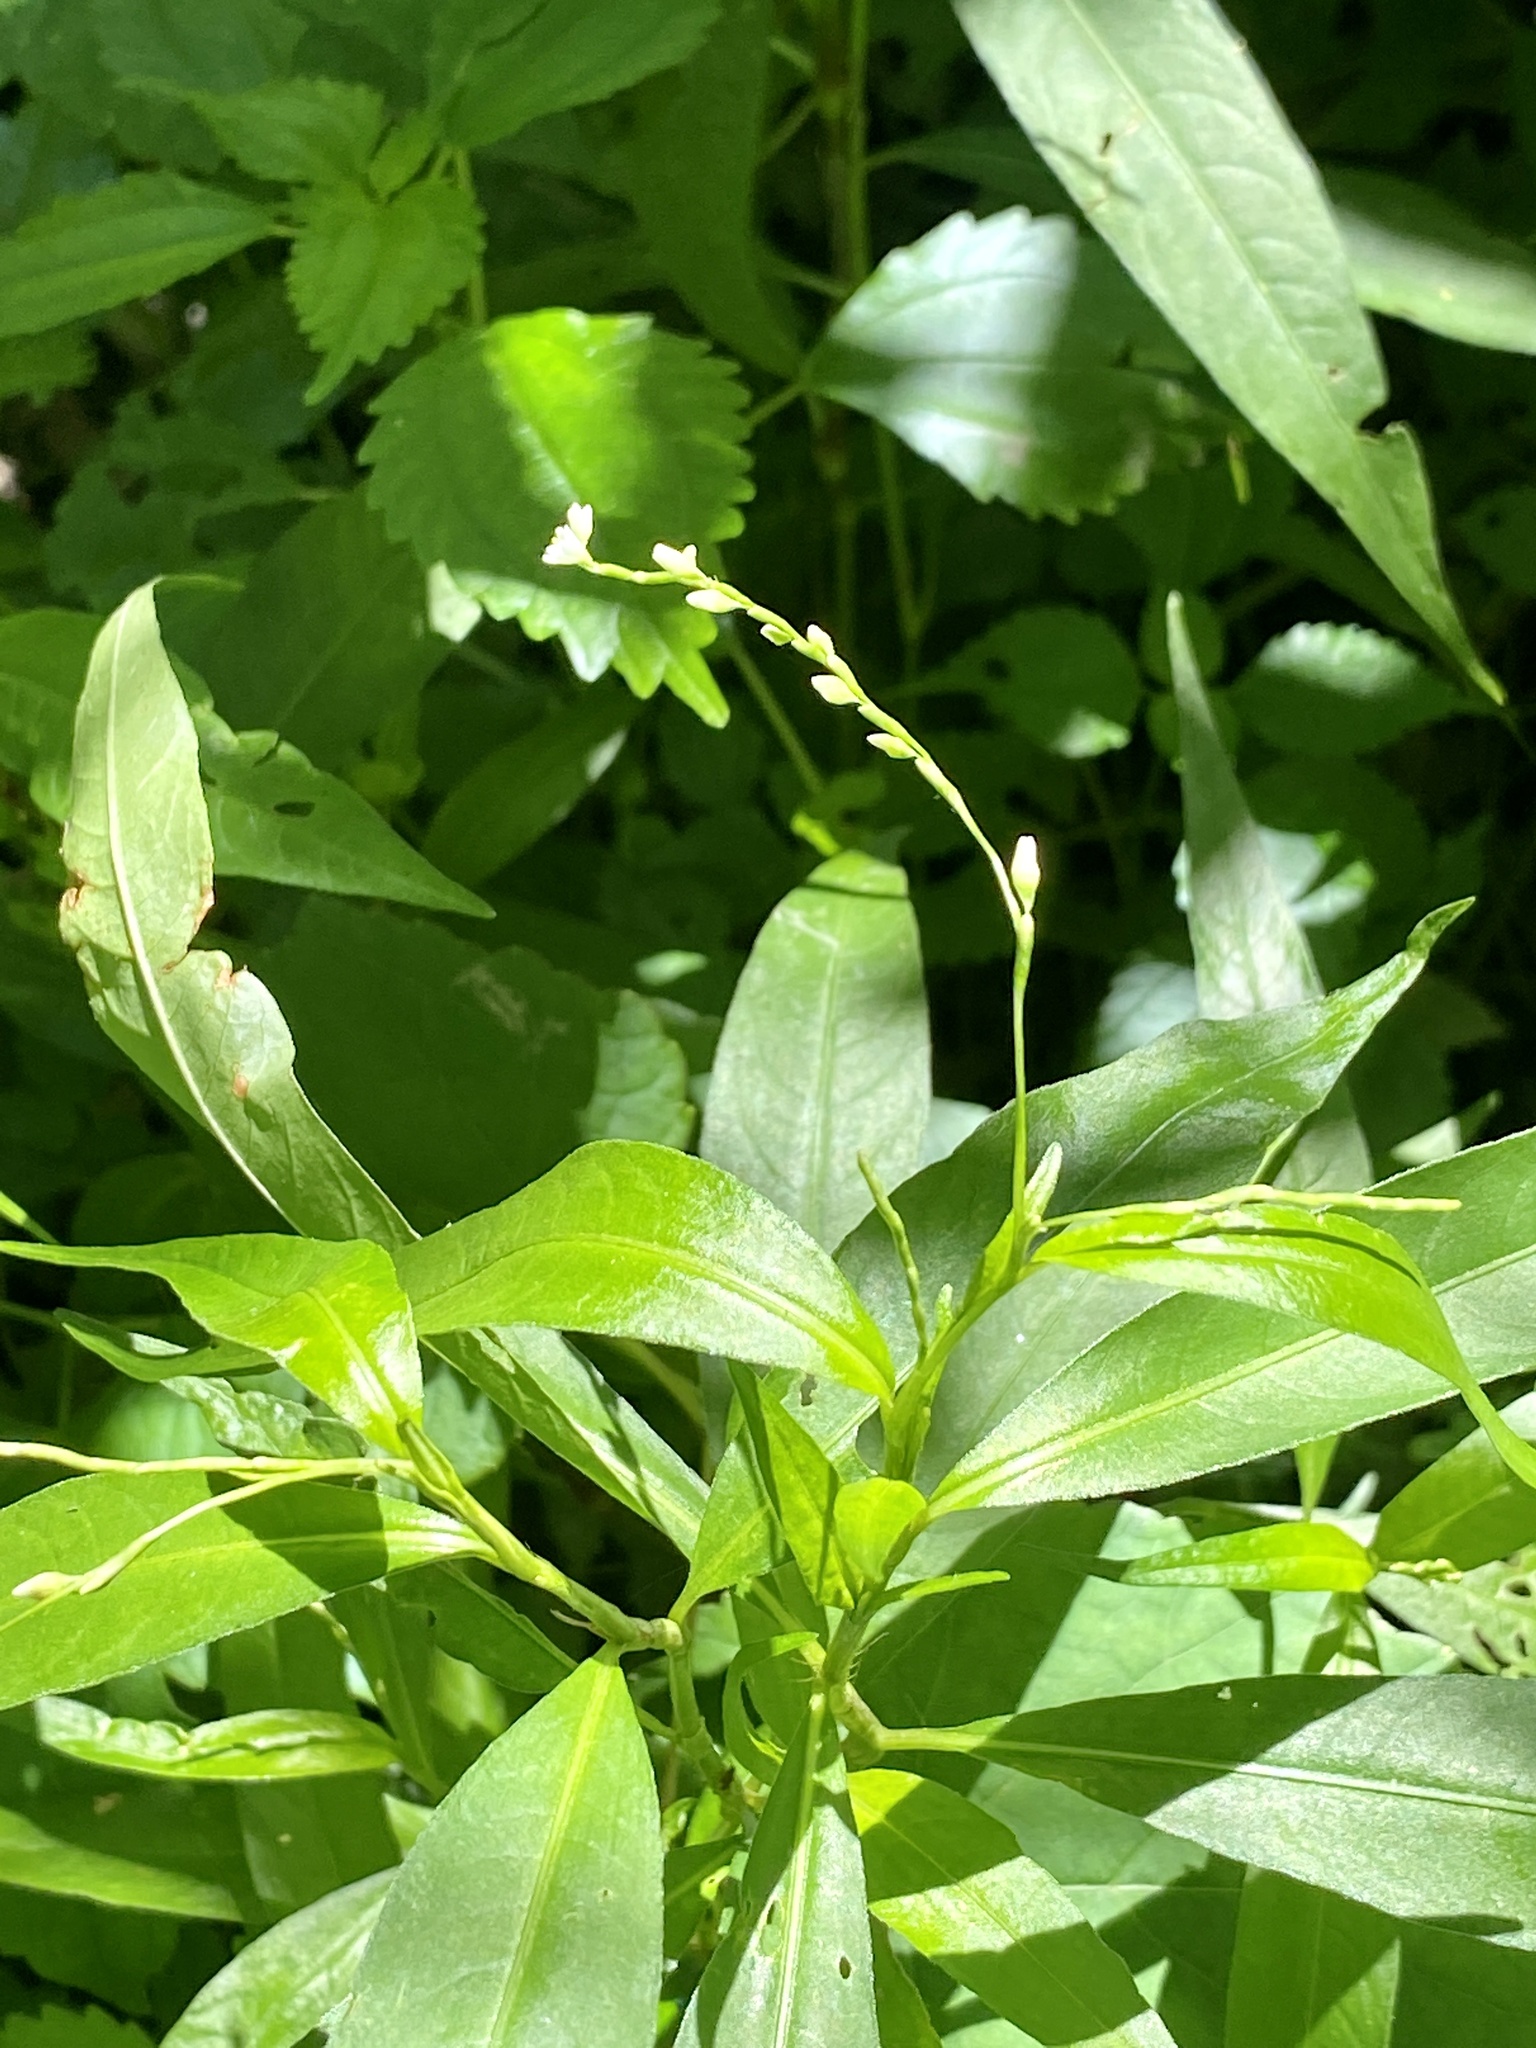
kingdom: Plantae
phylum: Tracheophyta
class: Magnoliopsida
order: Caryophyllales
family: Polygonaceae
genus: Persicaria
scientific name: Persicaria punctata
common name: Dotted smartweed
